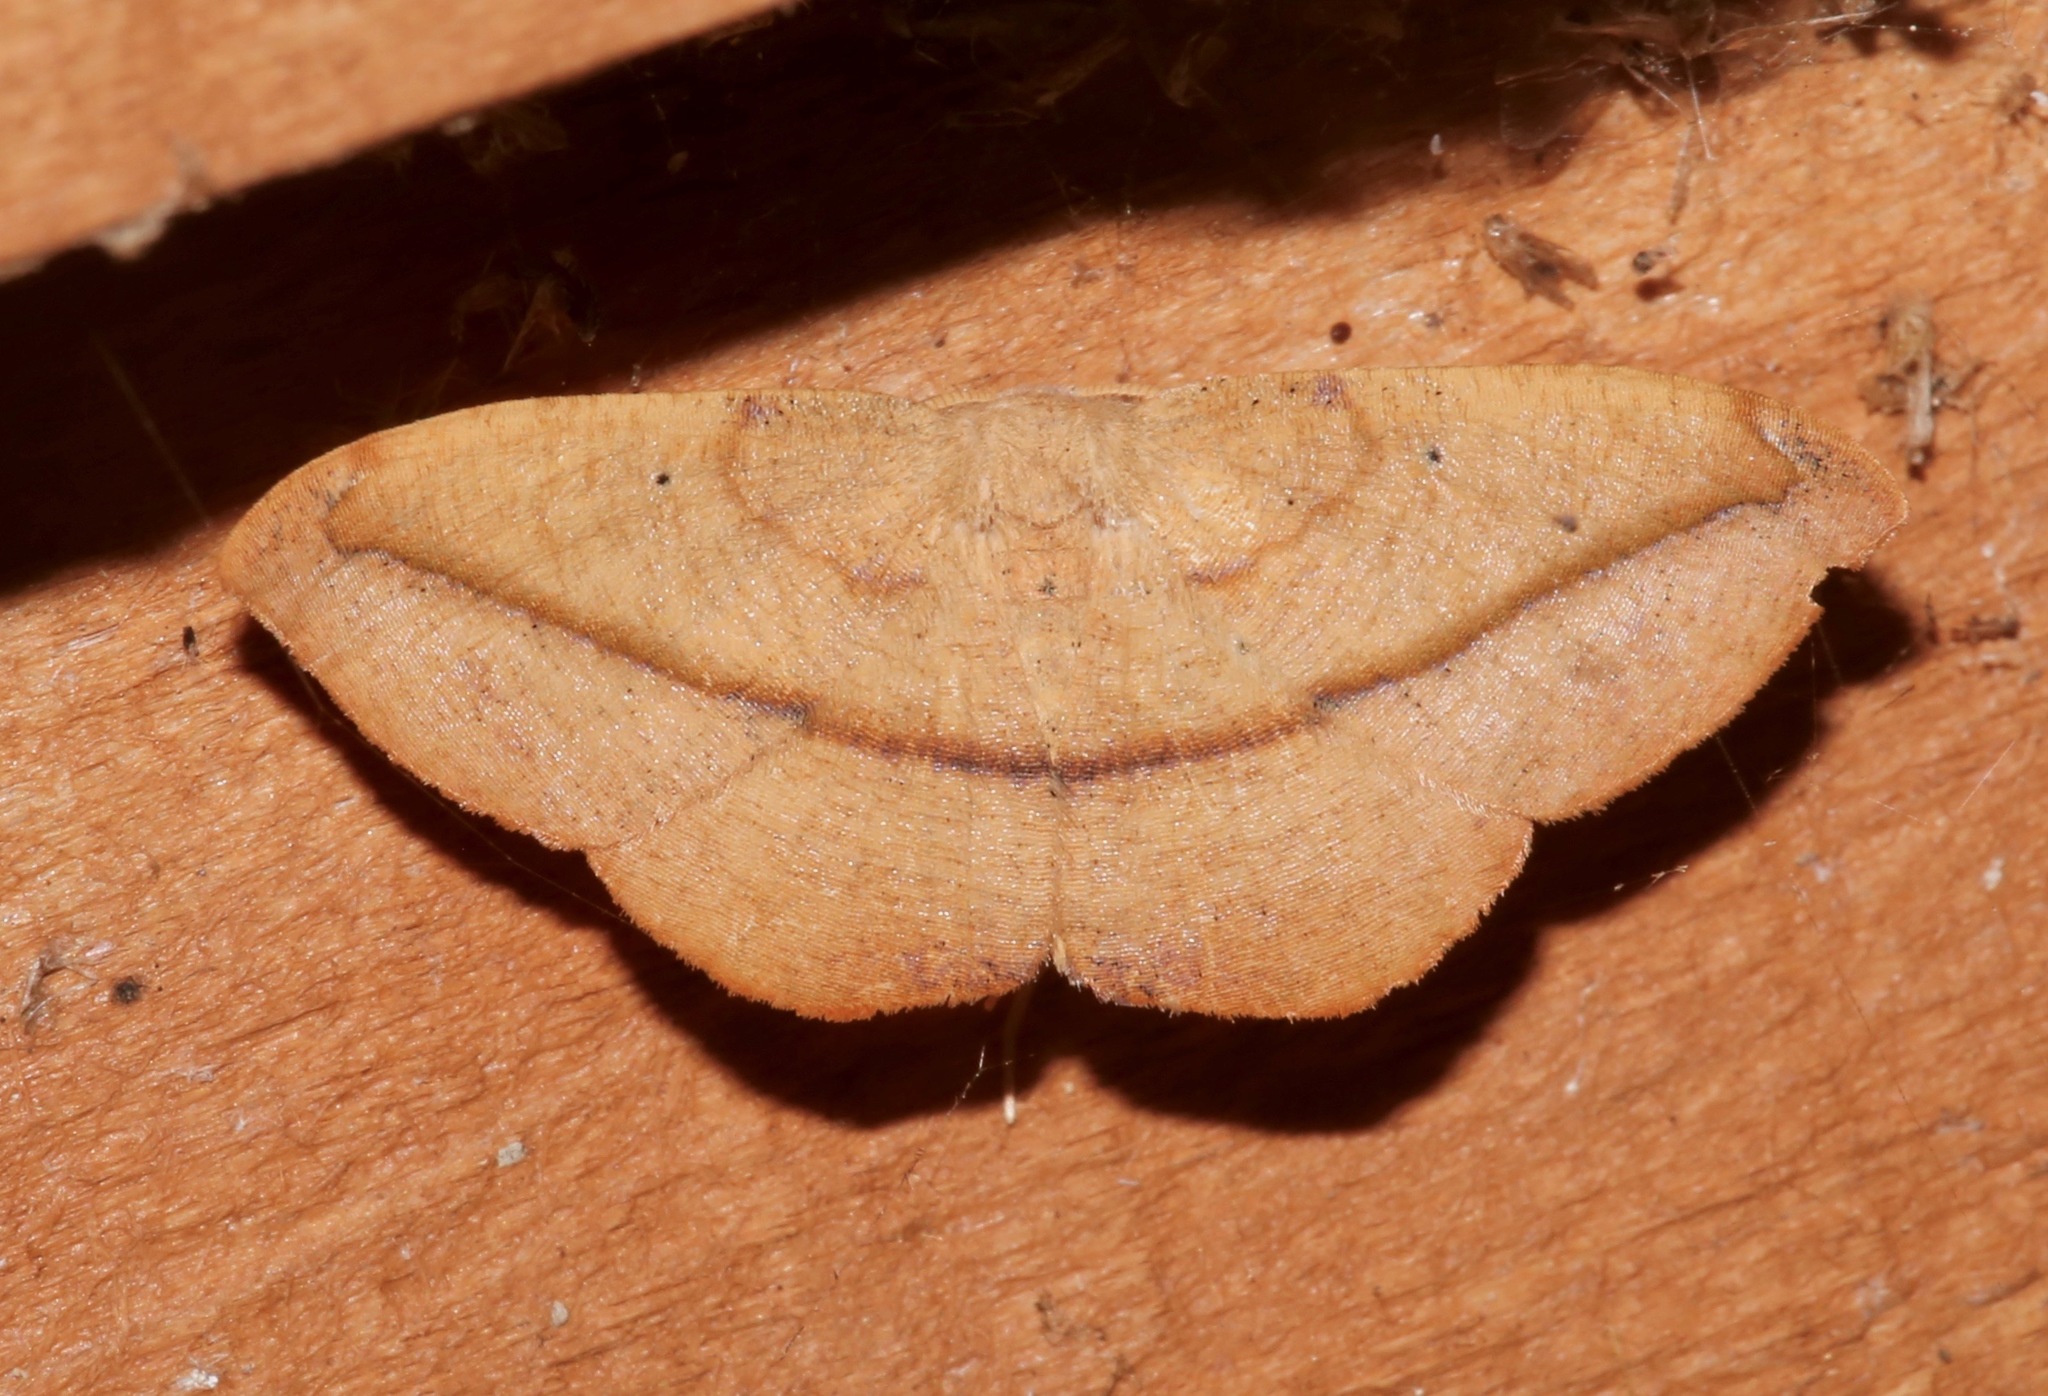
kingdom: Animalia
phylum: Arthropoda
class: Insecta
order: Lepidoptera
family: Geometridae
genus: Patalene
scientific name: Patalene olyzonaria
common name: Juniper geometer moth
